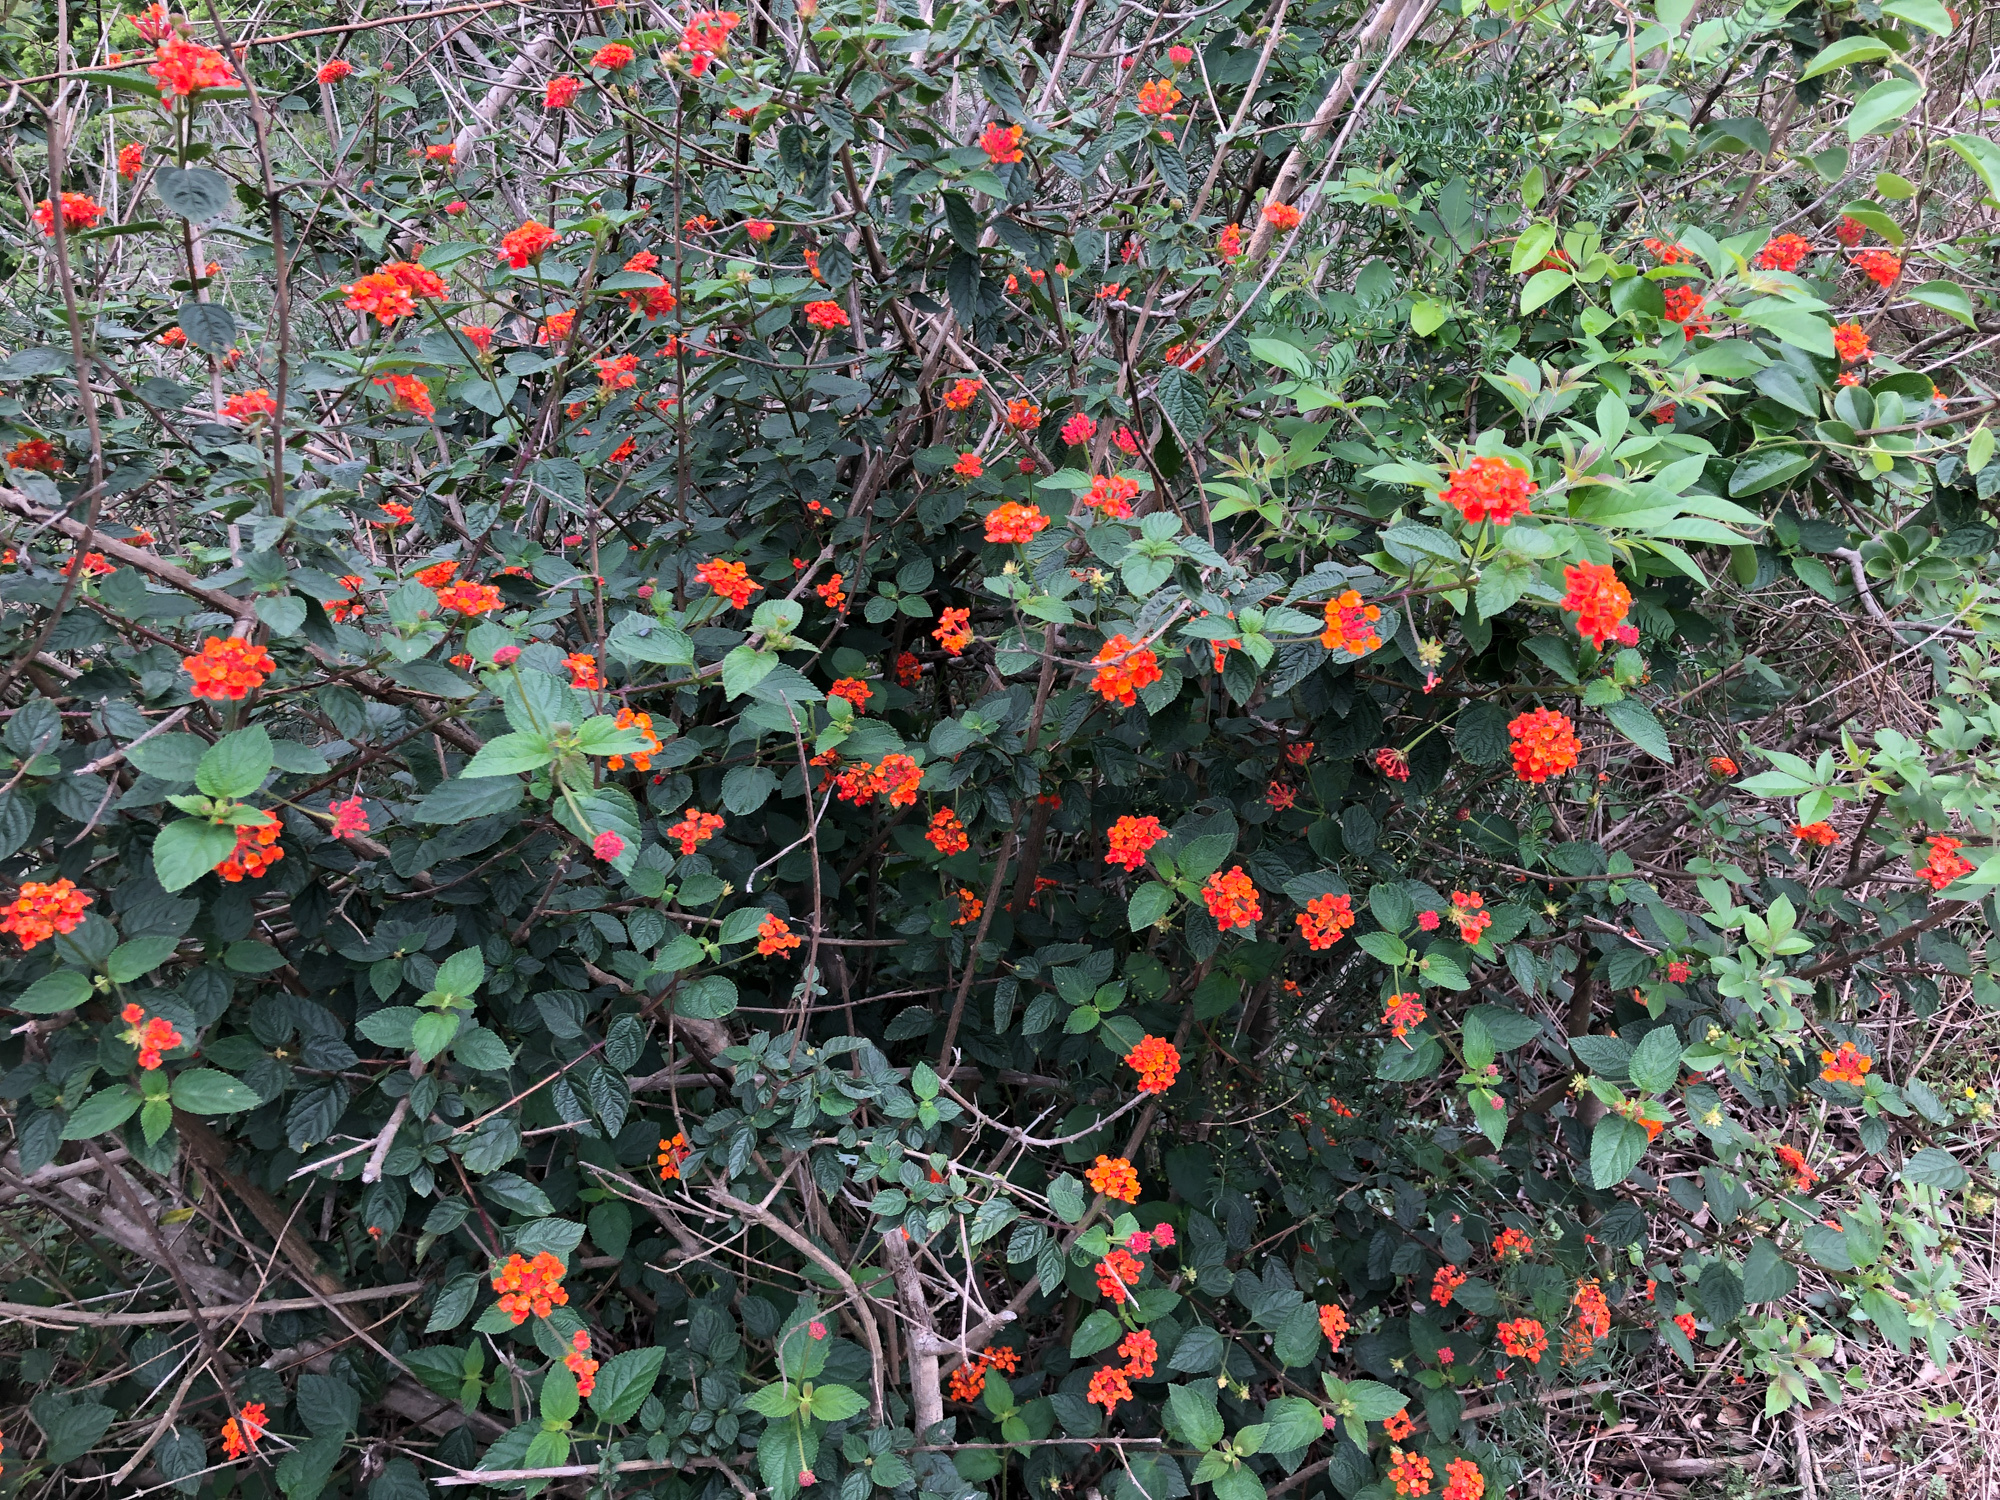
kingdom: Plantae
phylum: Tracheophyta
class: Magnoliopsida
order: Lamiales
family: Verbenaceae
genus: Lantana
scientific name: Lantana camara
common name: Lantana
